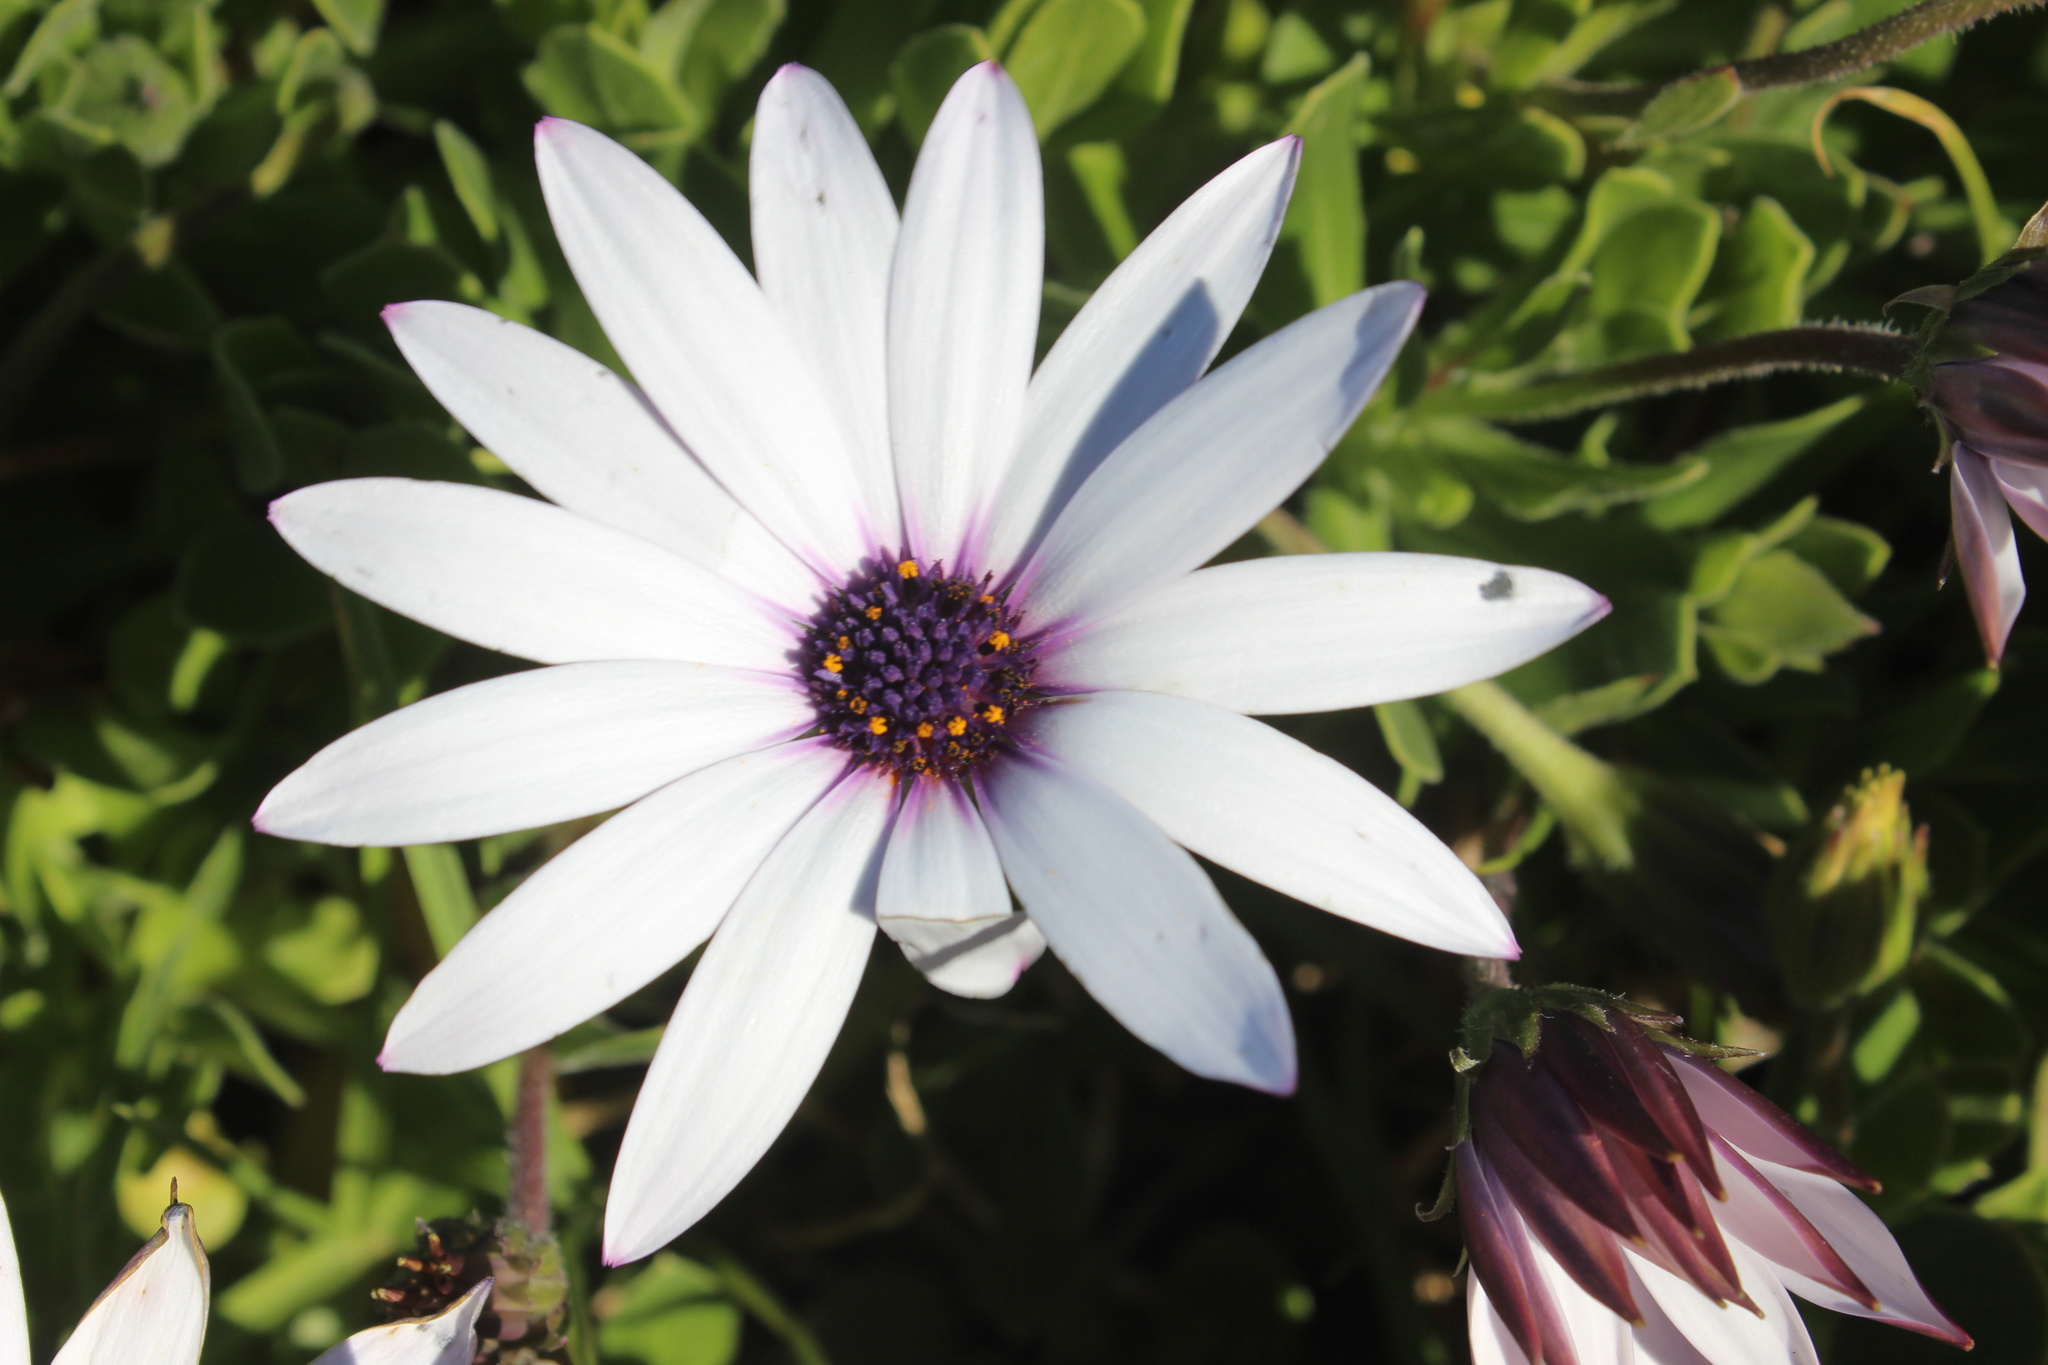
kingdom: Plantae
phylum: Tracheophyta
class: Magnoliopsida
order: Asterales
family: Asteraceae
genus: Dimorphotheca
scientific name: Dimorphotheca fruticosa
